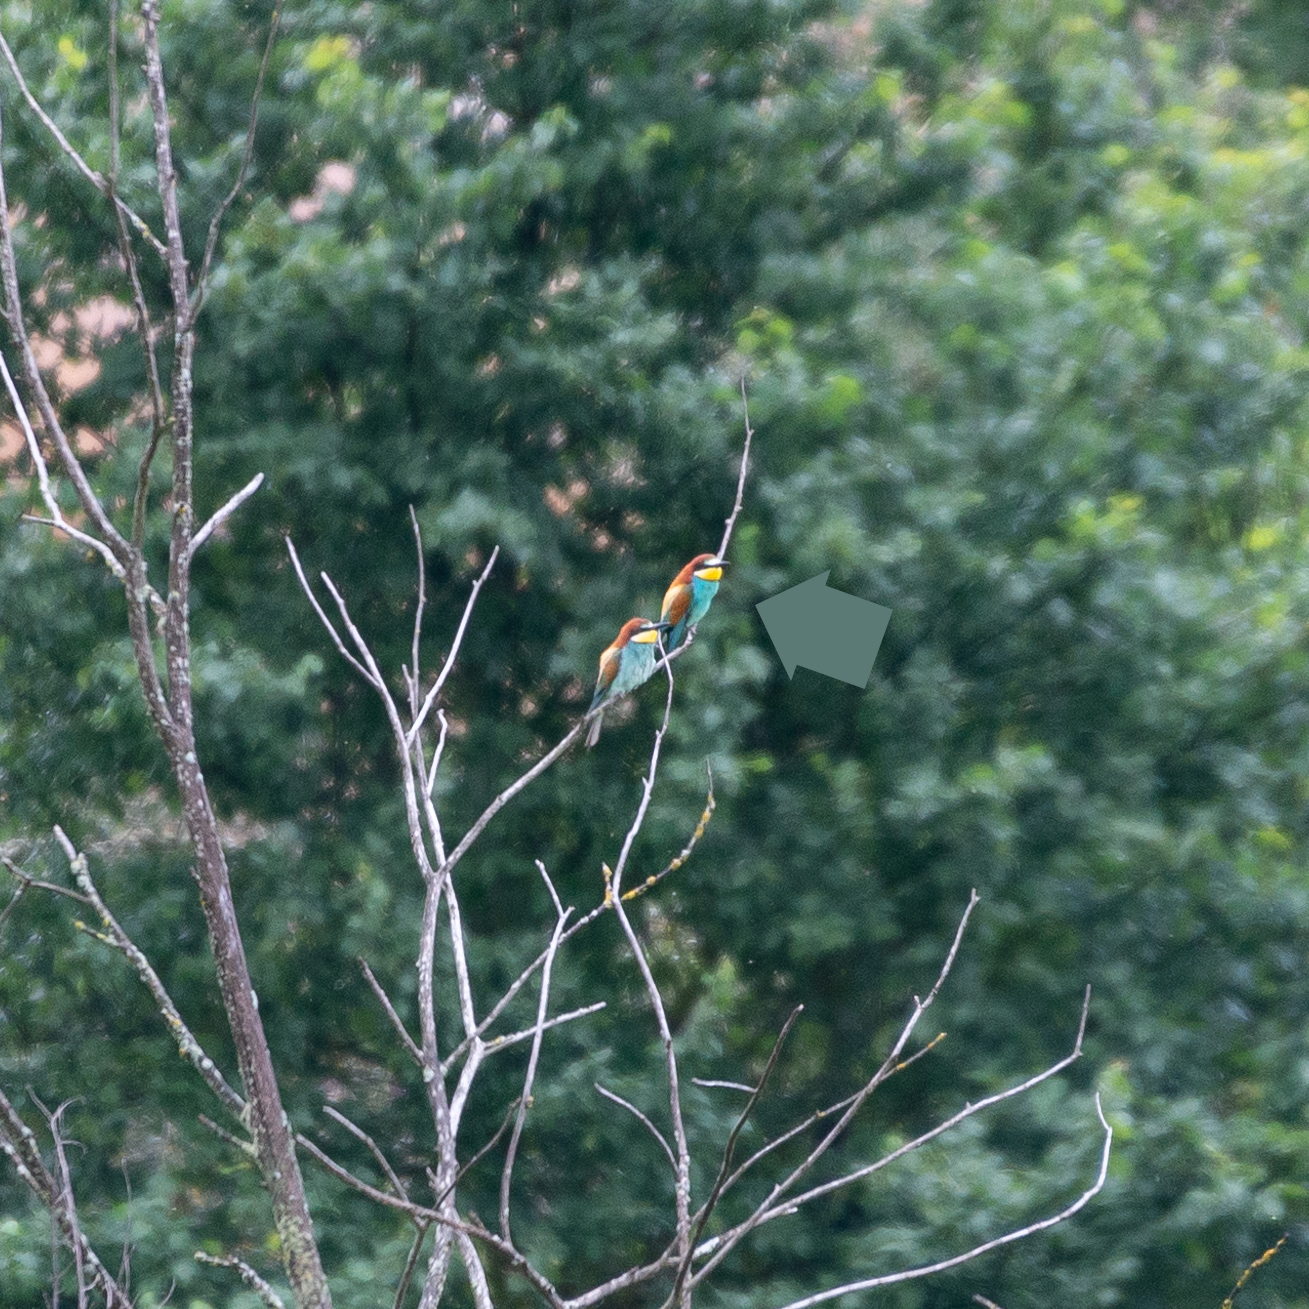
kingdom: Animalia
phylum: Chordata
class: Aves
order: Coraciiformes
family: Meropidae
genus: Merops
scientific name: Merops apiaster
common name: European bee-eater
